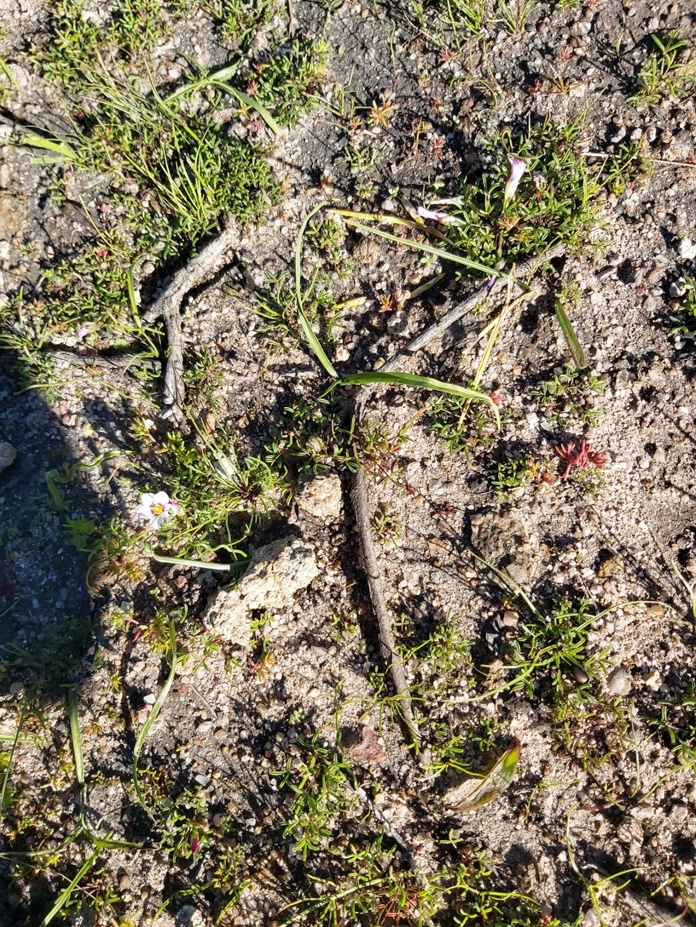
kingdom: Plantae
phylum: Tracheophyta
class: Magnoliopsida
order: Oxalidales
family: Oxalidaceae
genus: Oxalis
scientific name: Oxalis pusilla
